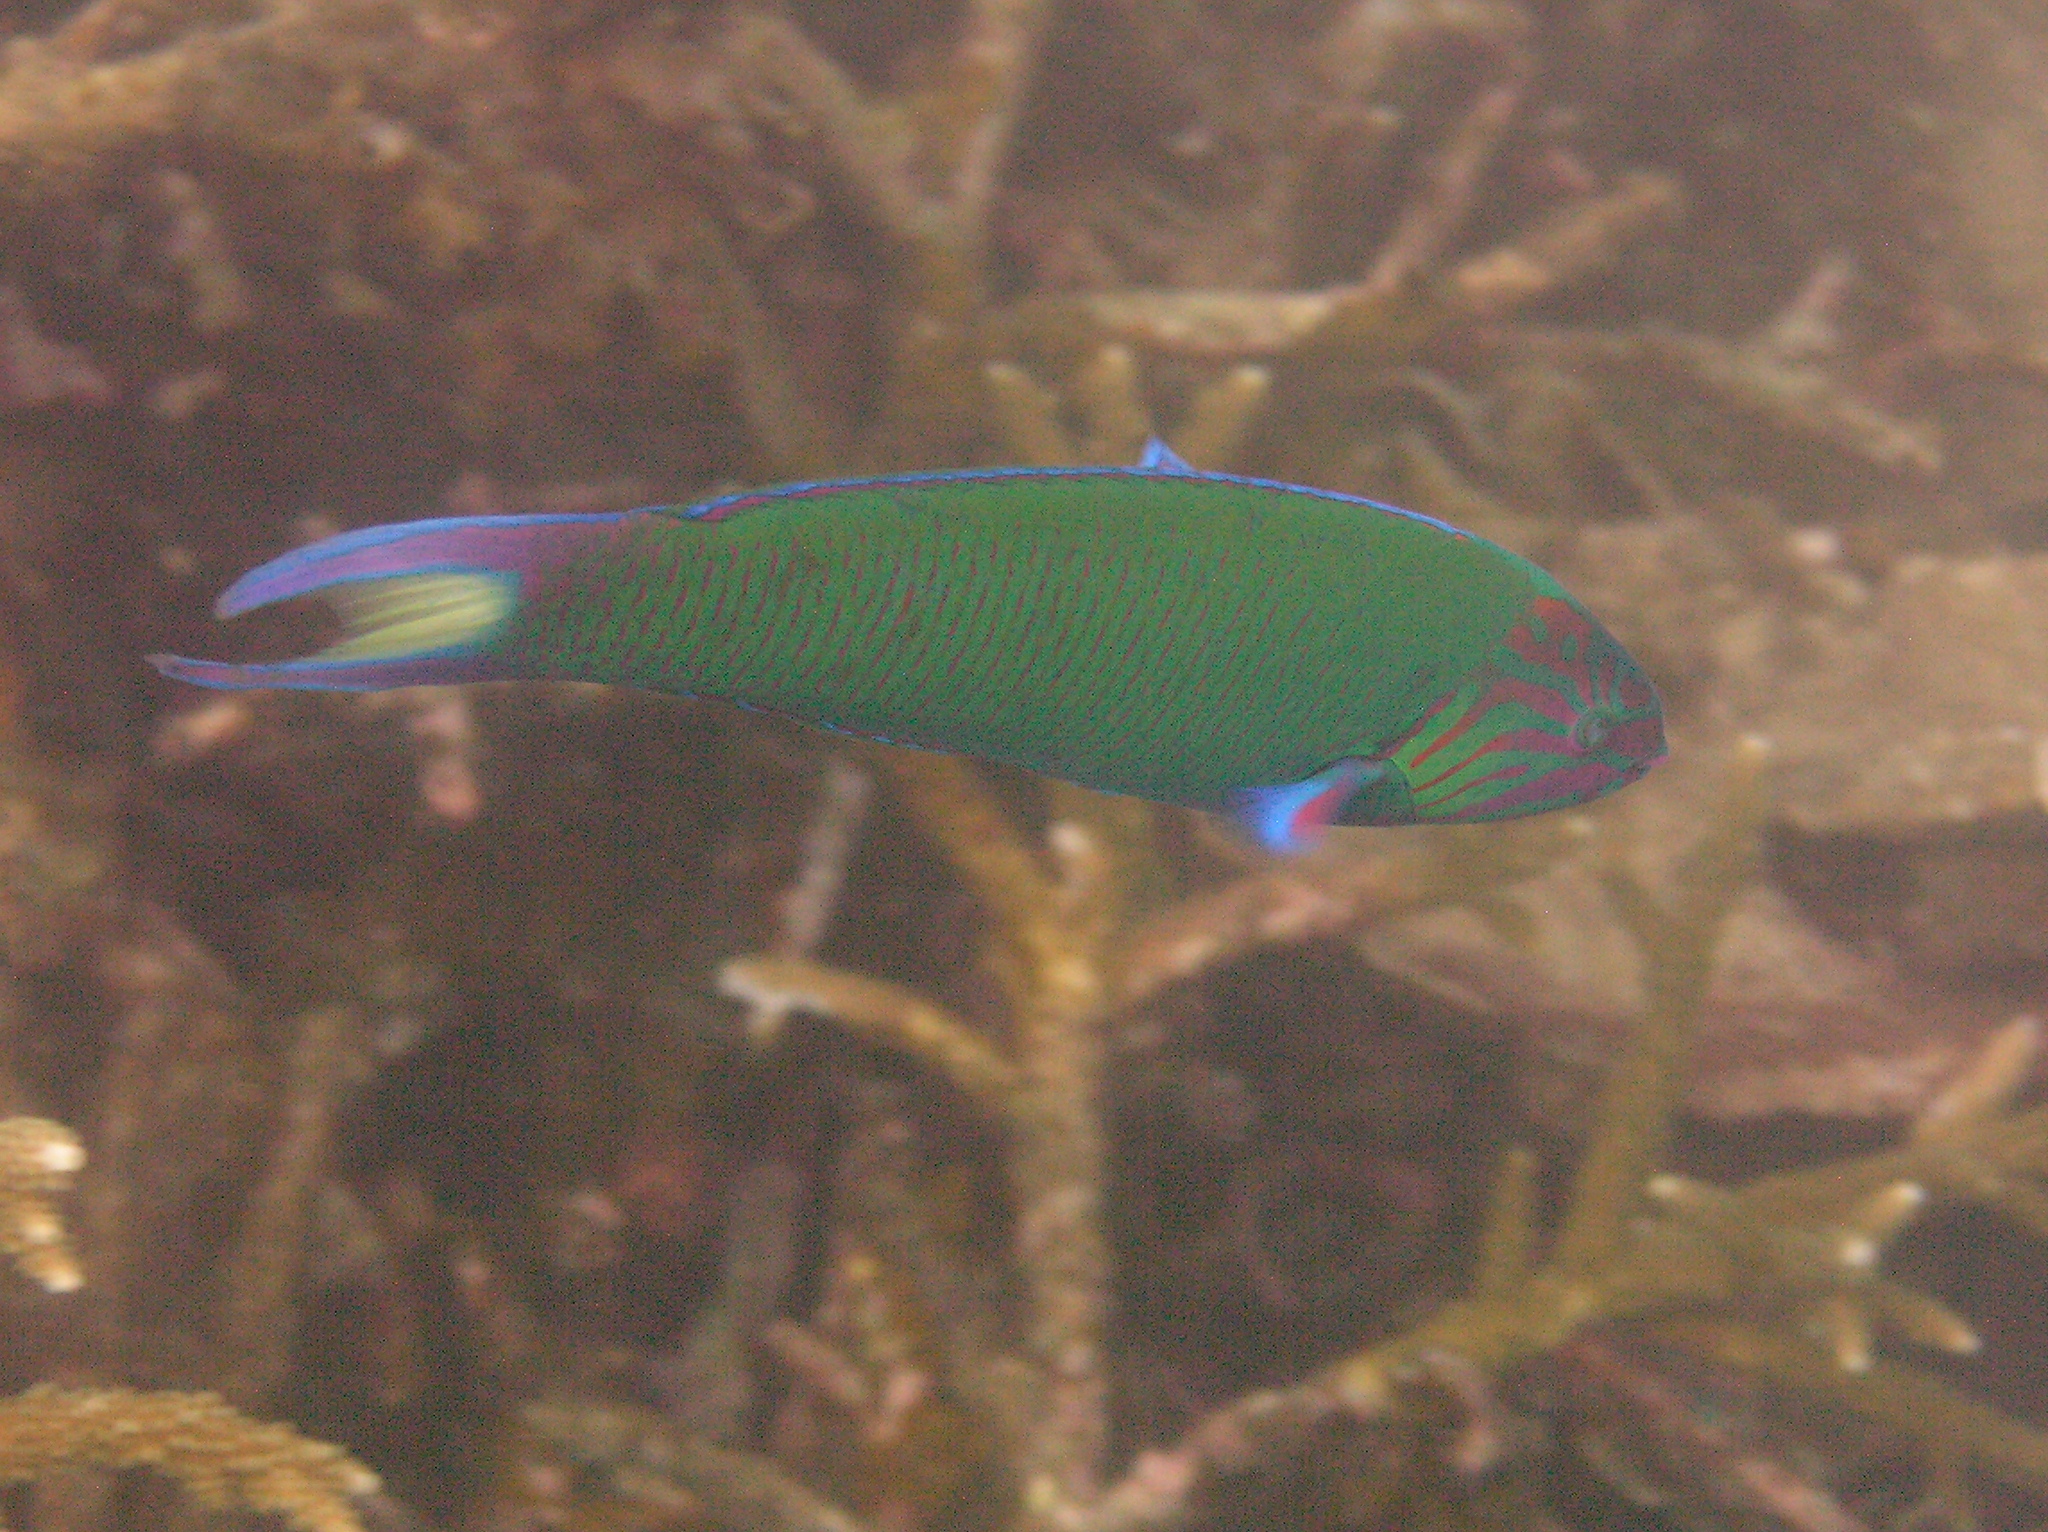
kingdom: Animalia
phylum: Chordata
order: Perciformes
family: Labridae
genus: Thalassoma
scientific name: Thalassoma lunare
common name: Blue wrasse
